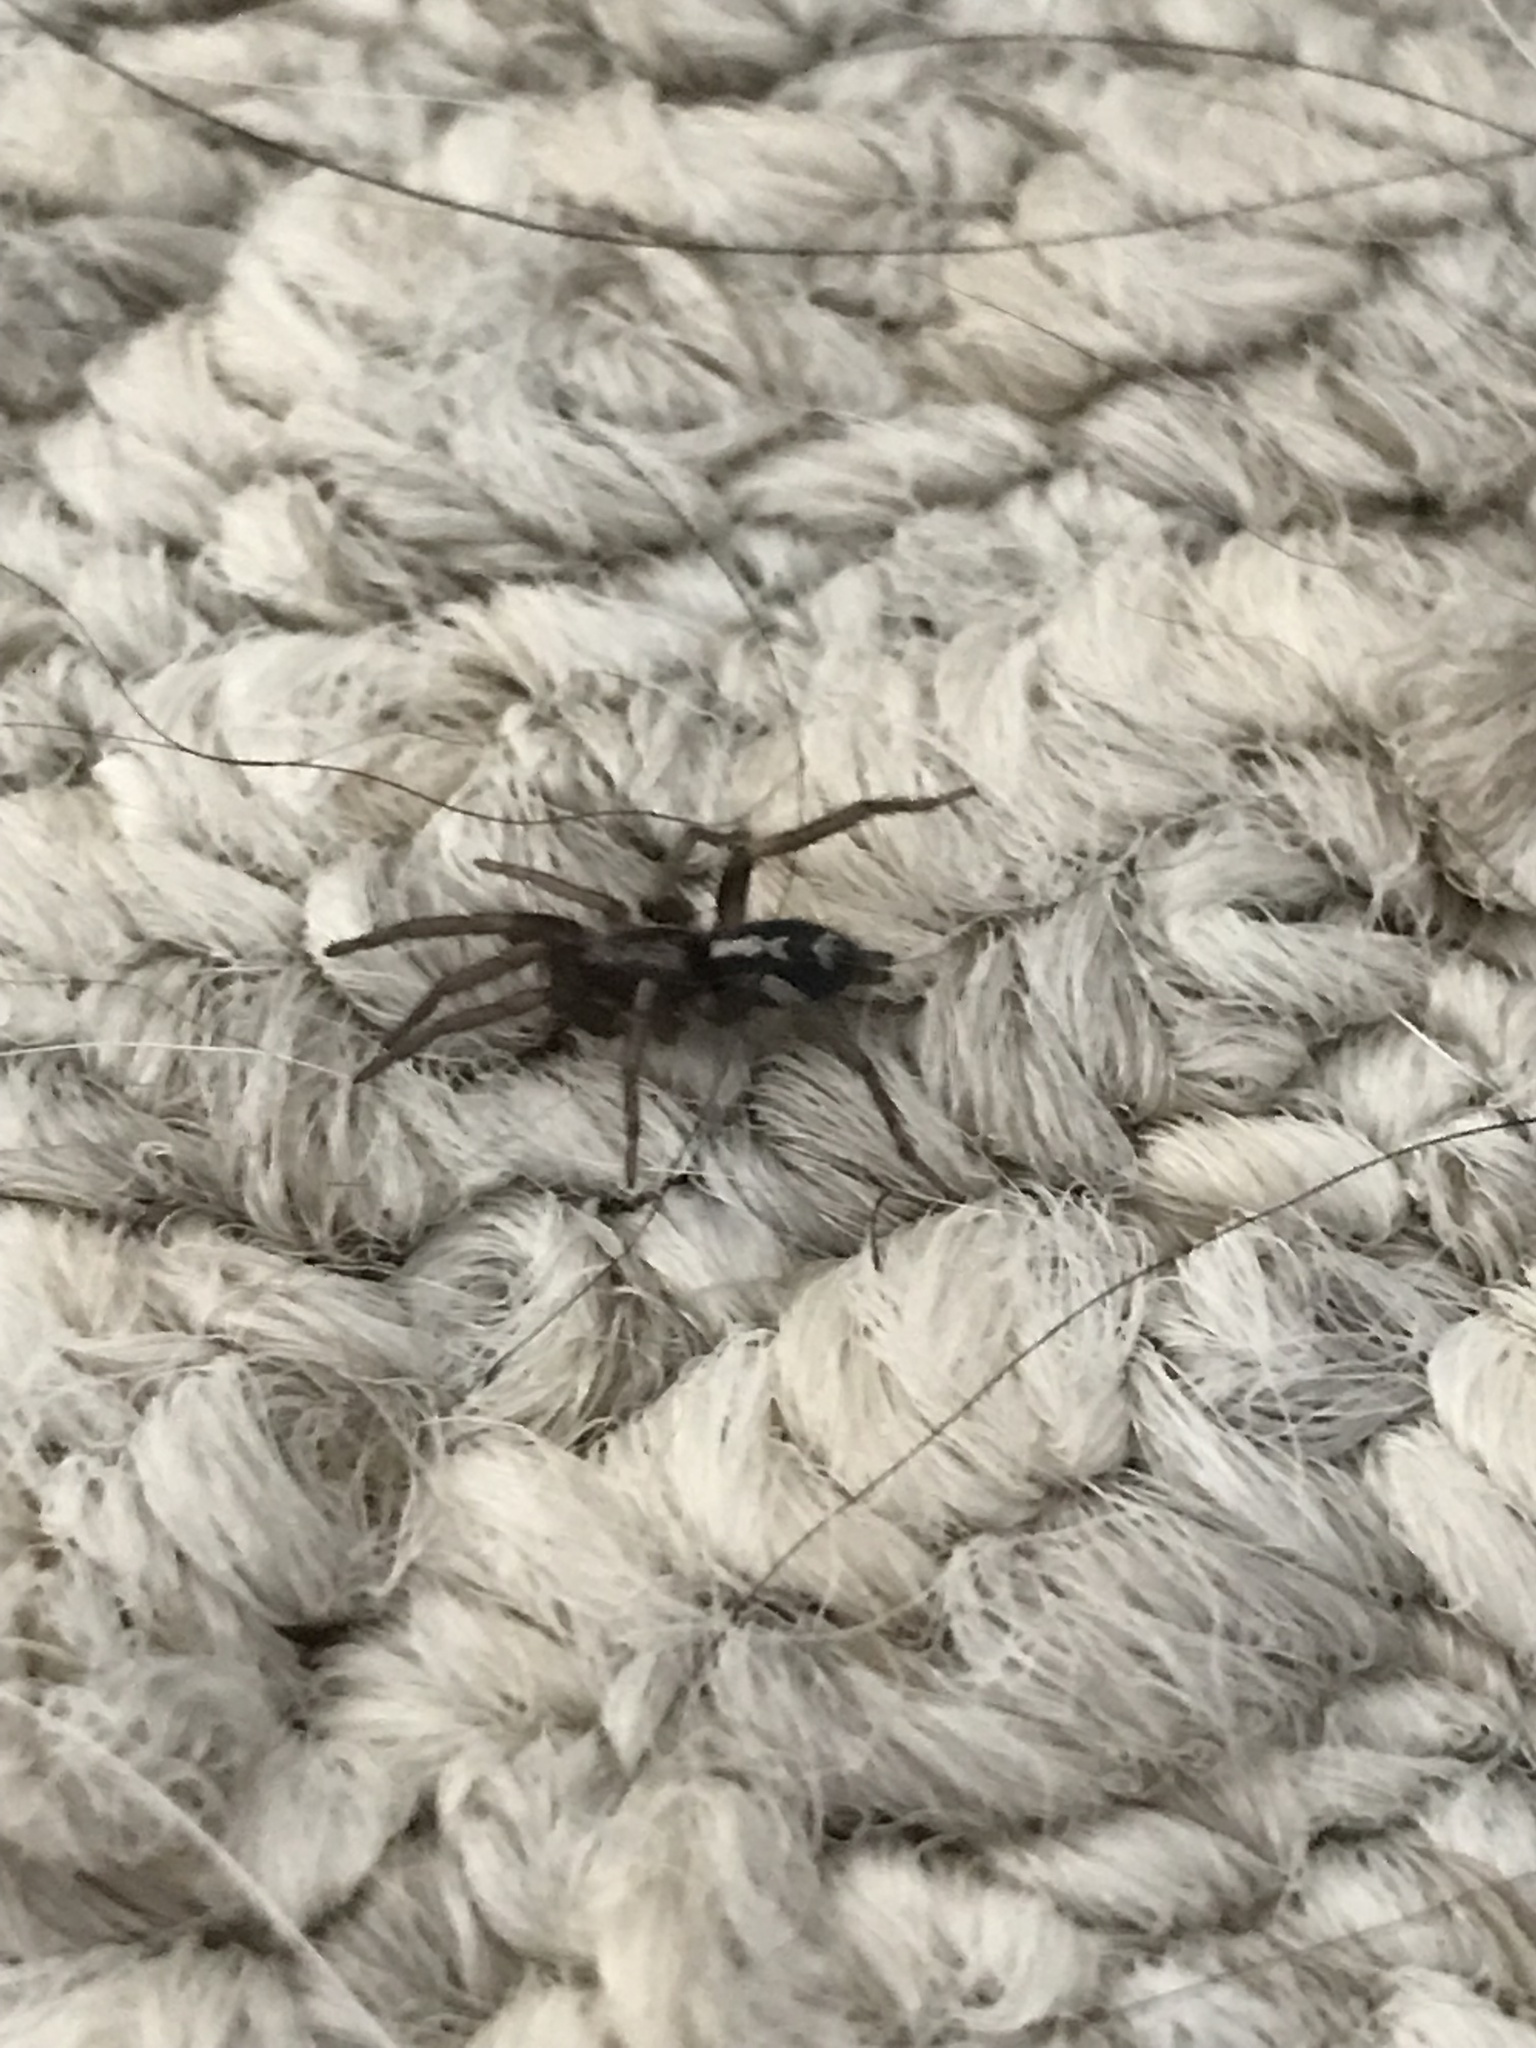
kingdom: Animalia
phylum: Arthropoda
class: Arachnida
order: Araneae
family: Gnaphosidae
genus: Herpyllus
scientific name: Herpyllus ecclesiasticus
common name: Eastern parson spider
